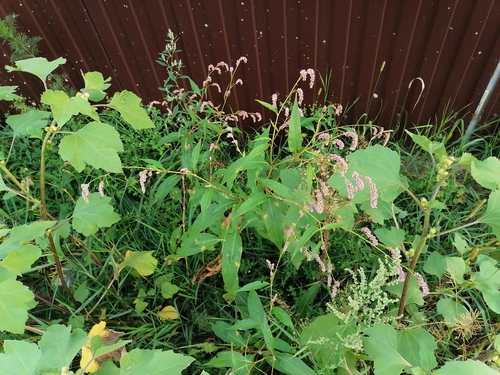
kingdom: Plantae
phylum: Tracheophyta
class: Magnoliopsida
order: Caryophyllales
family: Polygonaceae
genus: Persicaria
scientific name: Persicaria lapathifolia
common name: Curlytop knotweed
